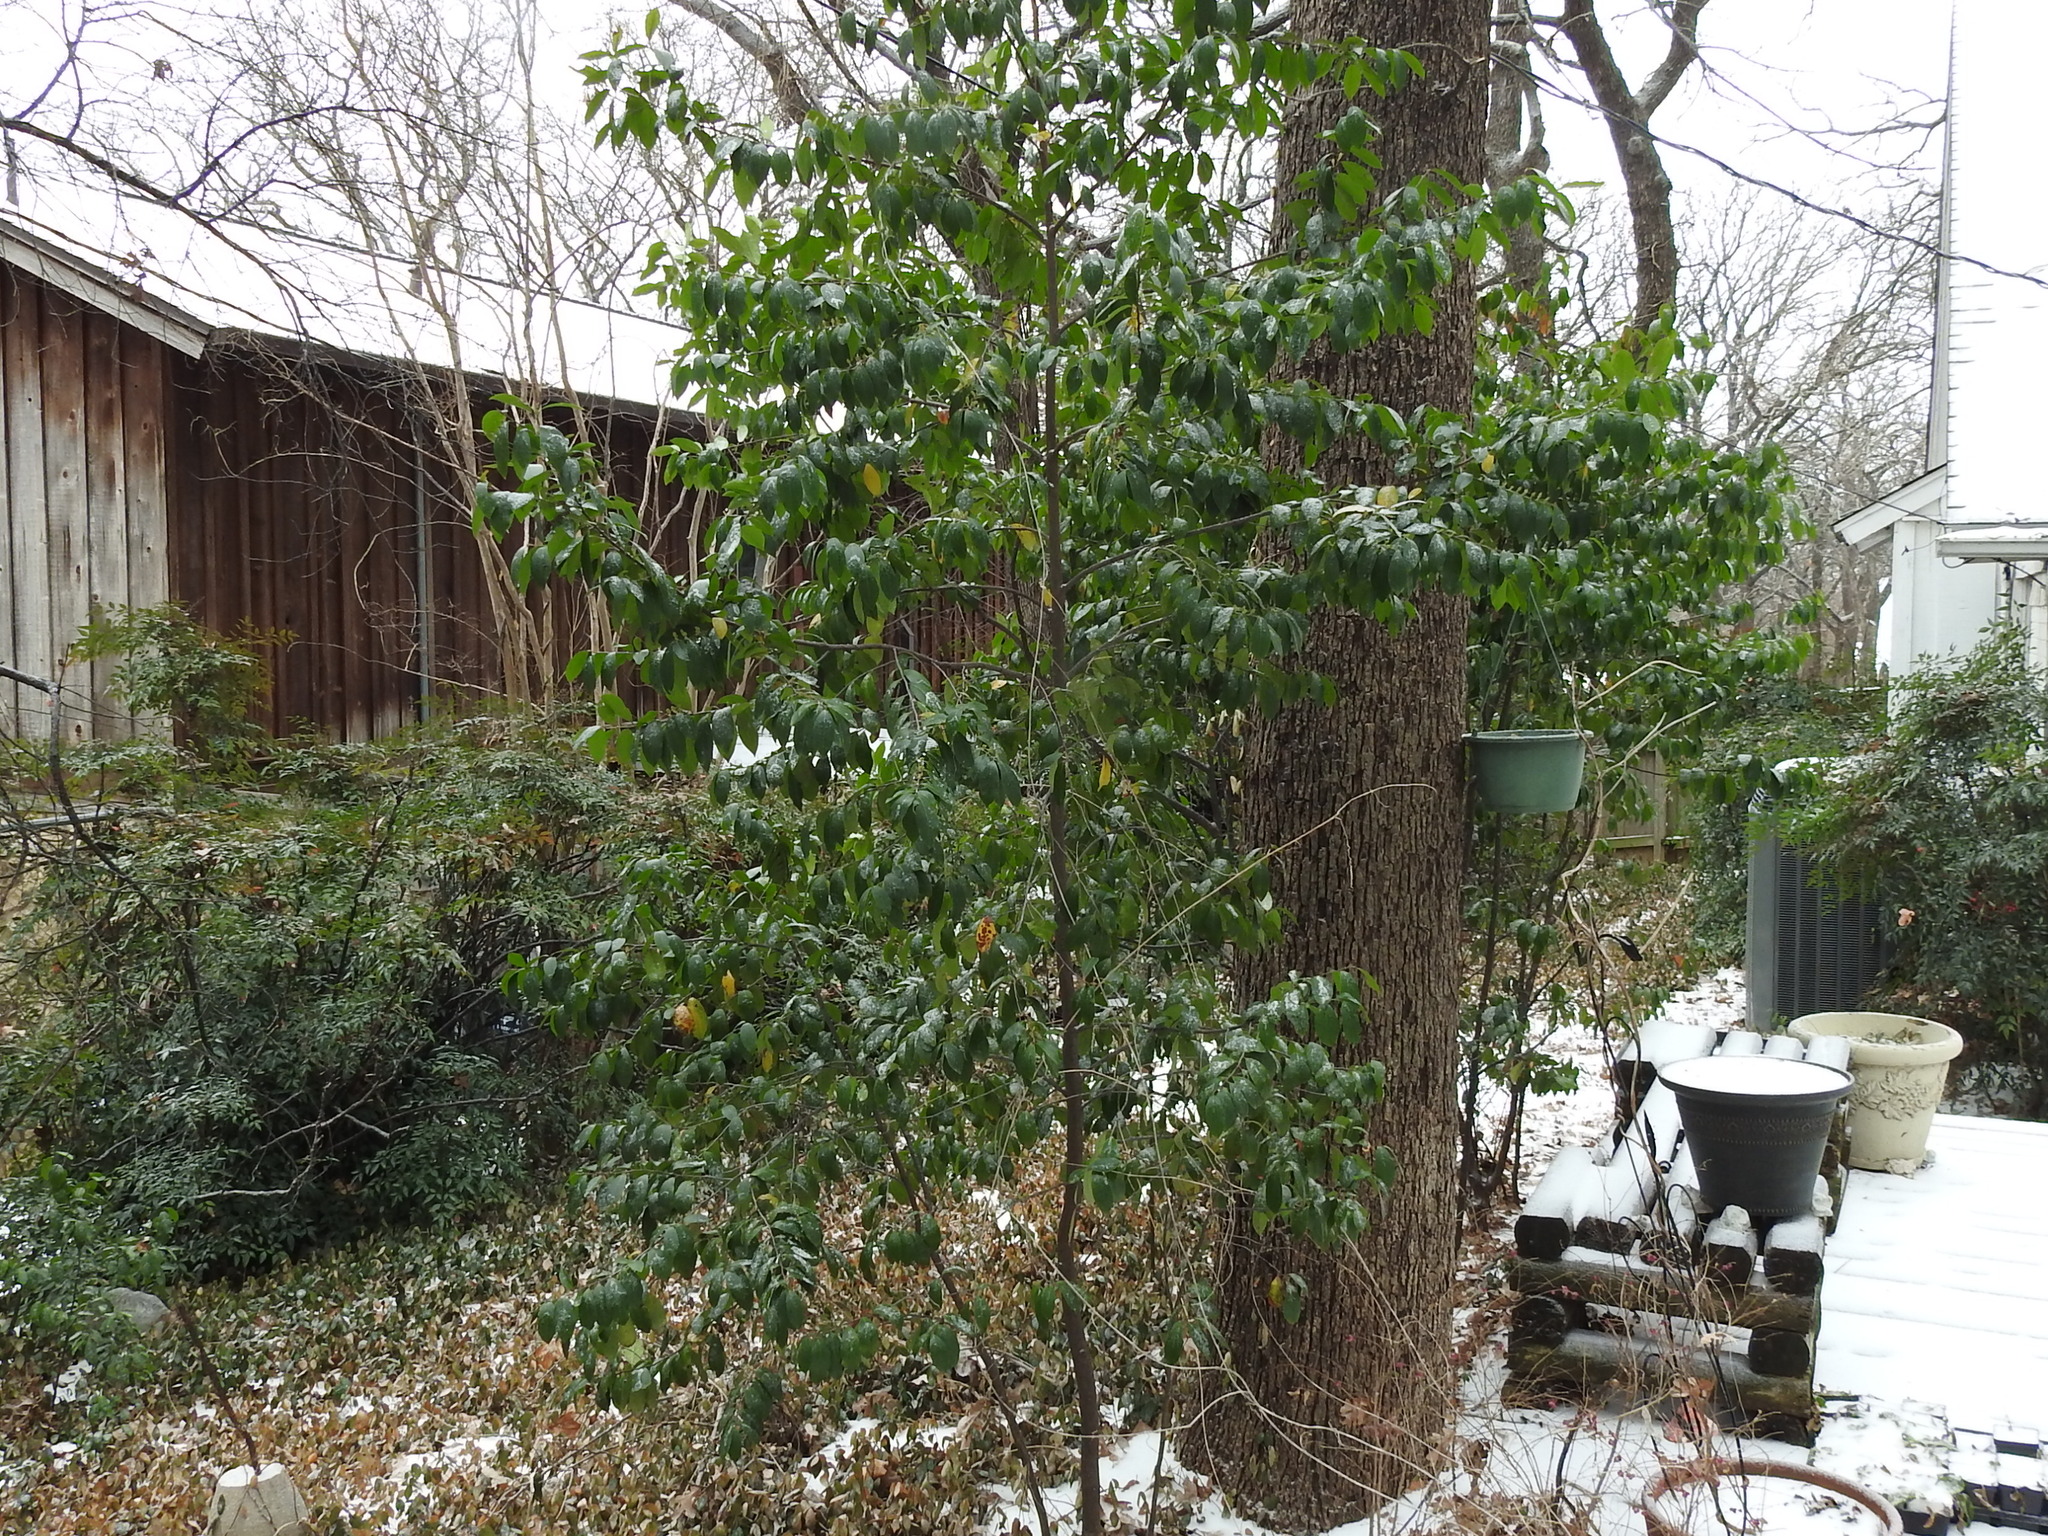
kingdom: Plantae
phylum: Tracheophyta
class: Magnoliopsida
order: Rosales
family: Rosaceae
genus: Prunus
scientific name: Prunus caroliniana
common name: Carolina laurel cherry
